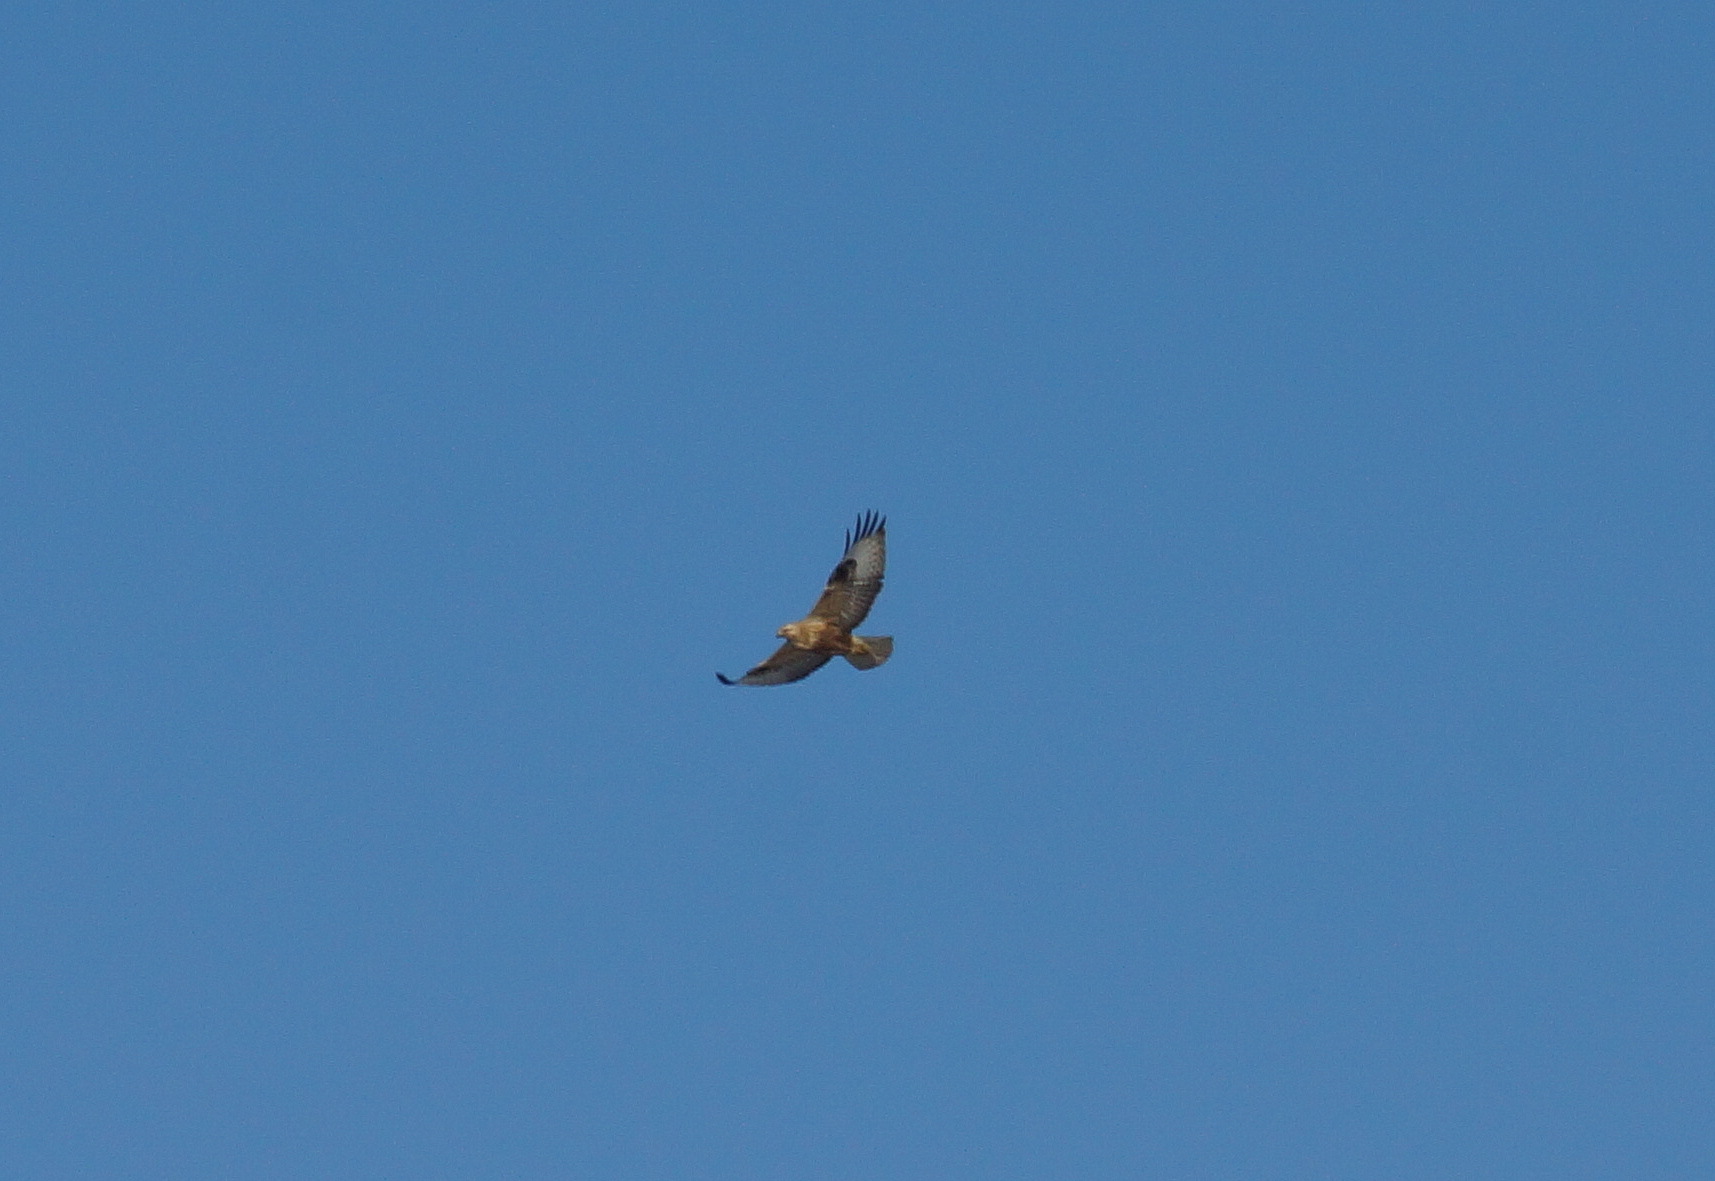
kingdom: Animalia
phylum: Chordata
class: Aves
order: Accipitriformes
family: Accipitridae
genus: Buteo
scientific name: Buteo rufinus
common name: Long-legged buzzard
